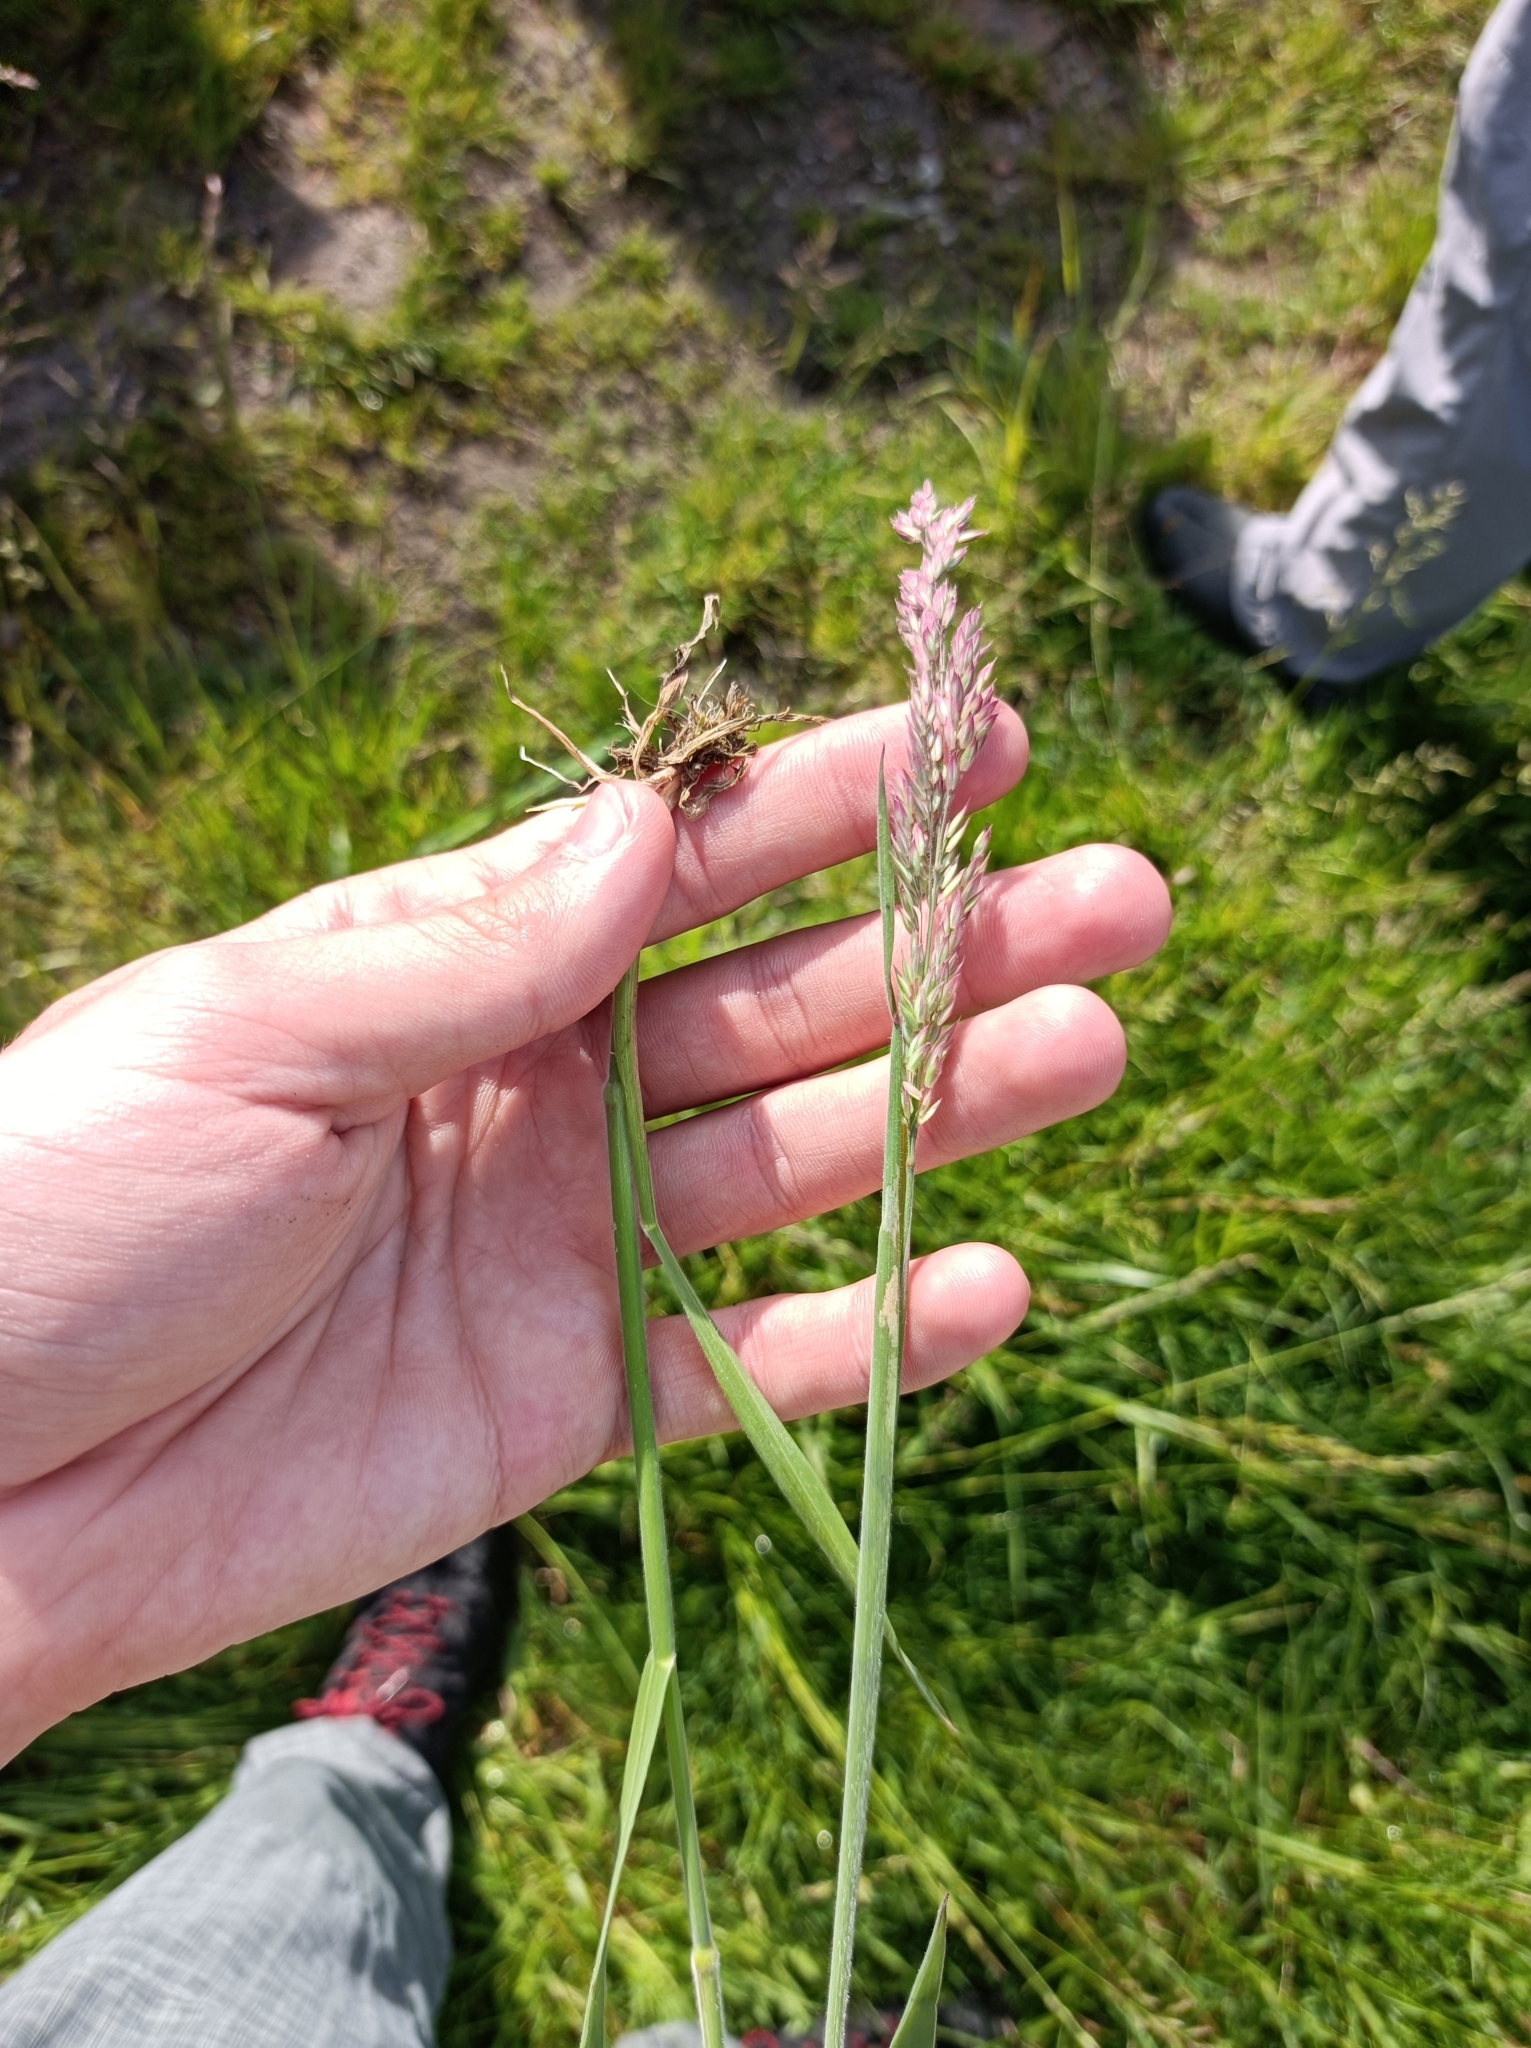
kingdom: Plantae
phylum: Tracheophyta
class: Liliopsida
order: Poales
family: Poaceae
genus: Holcus
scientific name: Holcus lanatus
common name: Yorkshire-fog
